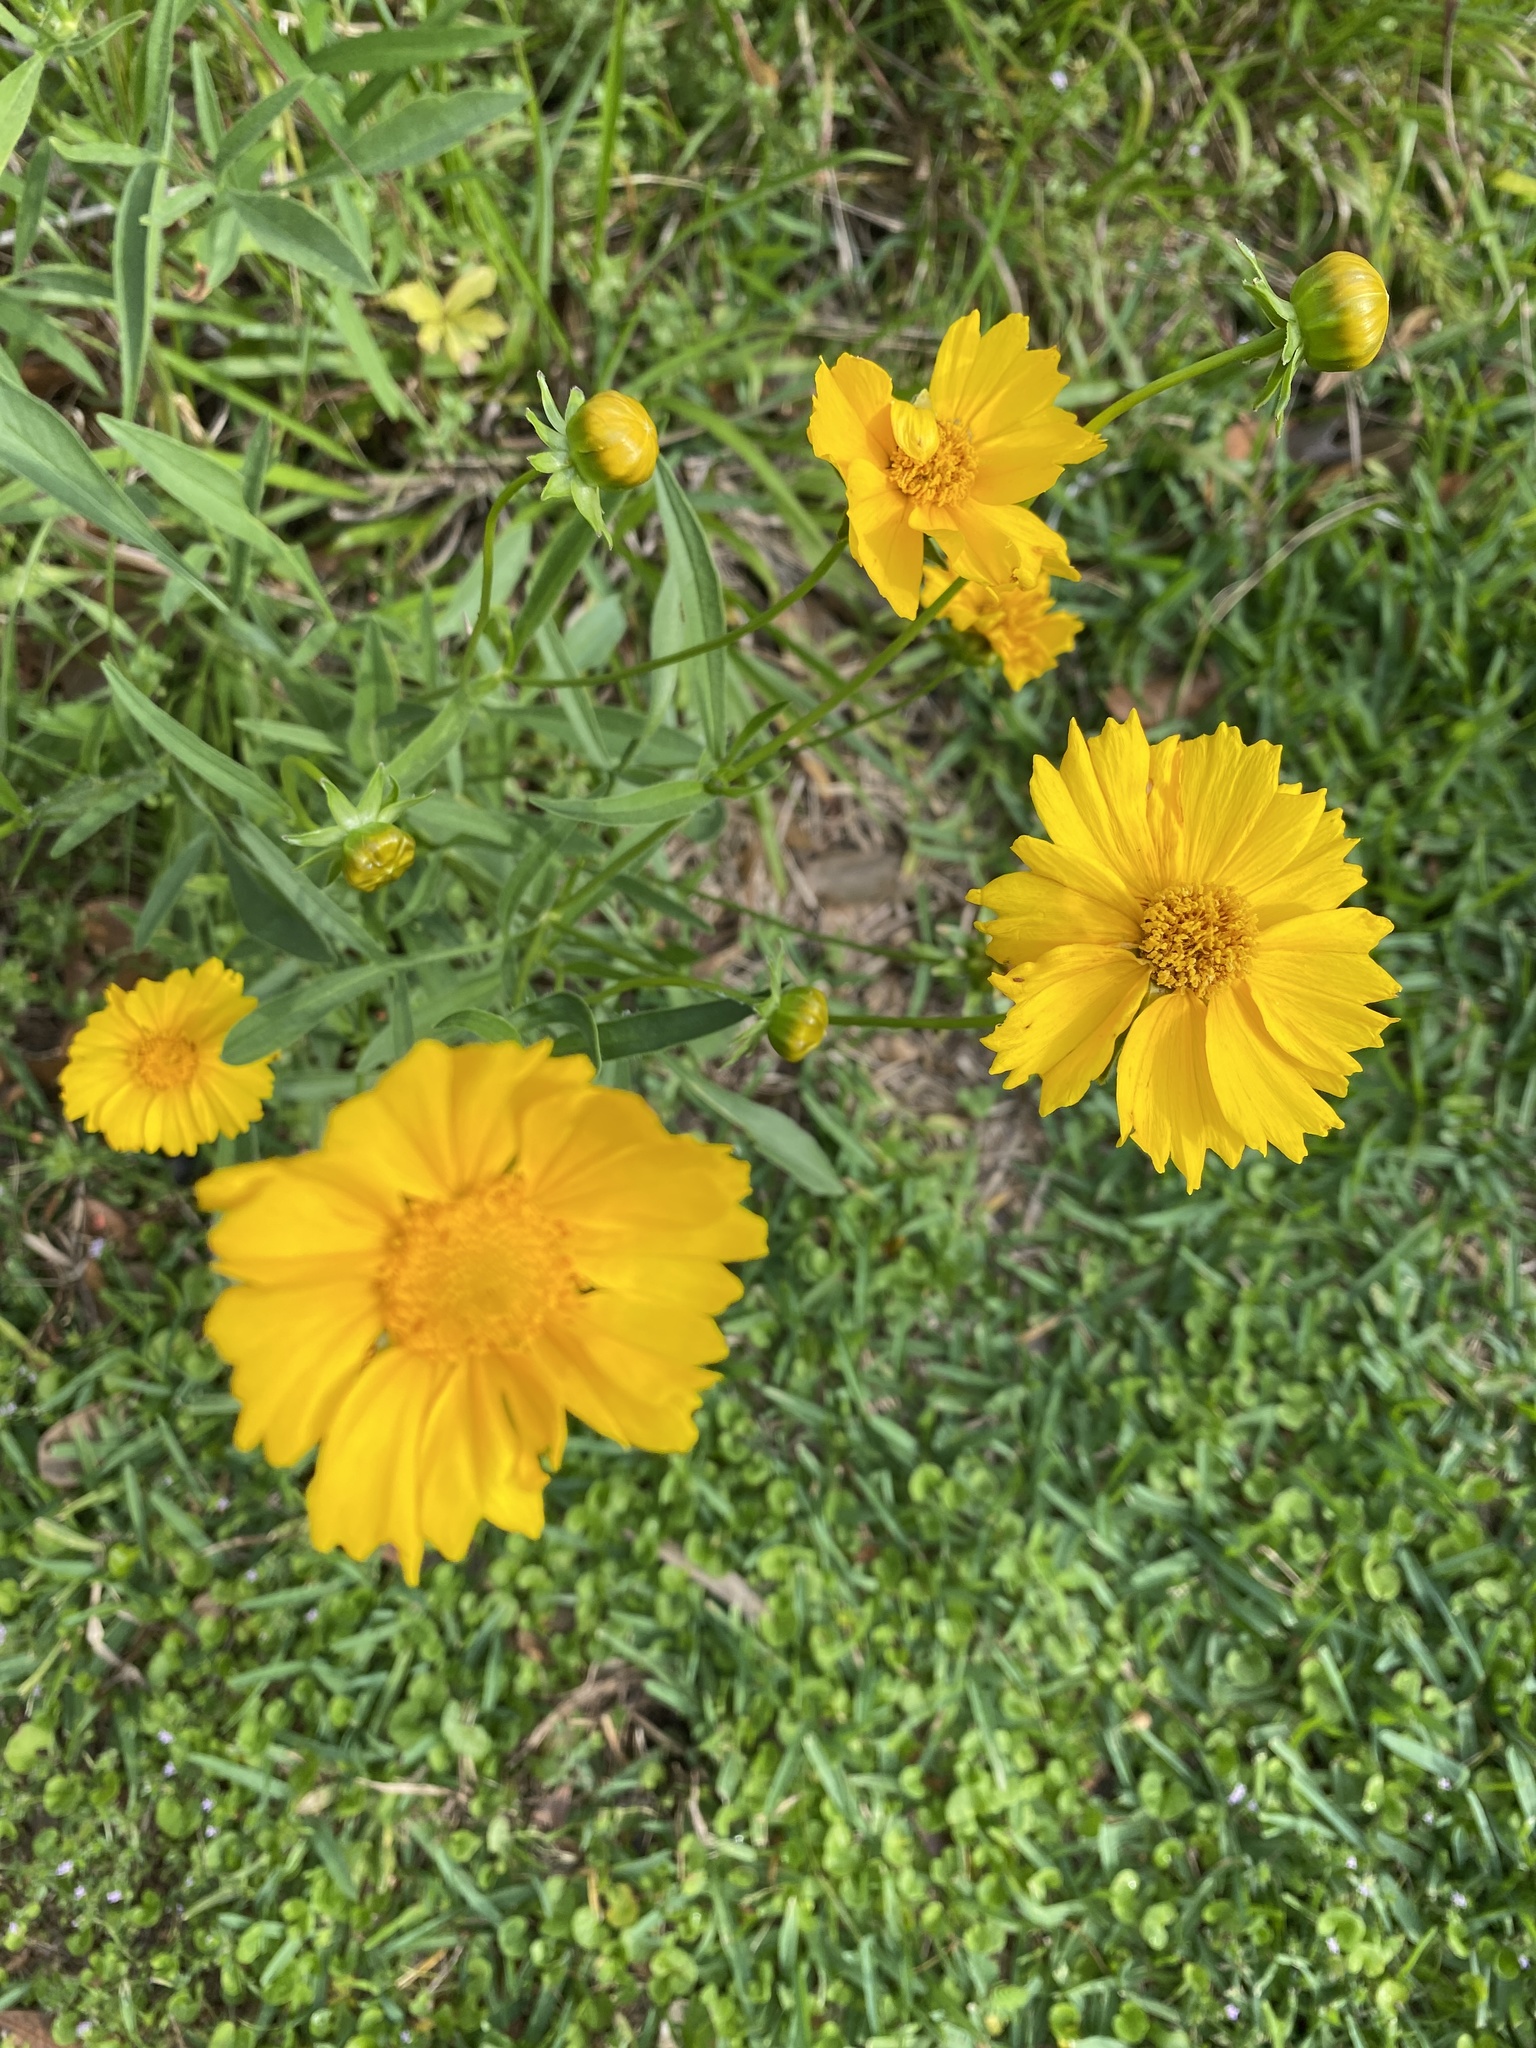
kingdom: Plantae
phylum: Tracheophyta
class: Magnoliopsida
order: Asterales
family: Asteraceae
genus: Coreopsis
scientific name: Coreopsis lanceolata
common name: Garden coreopsis
